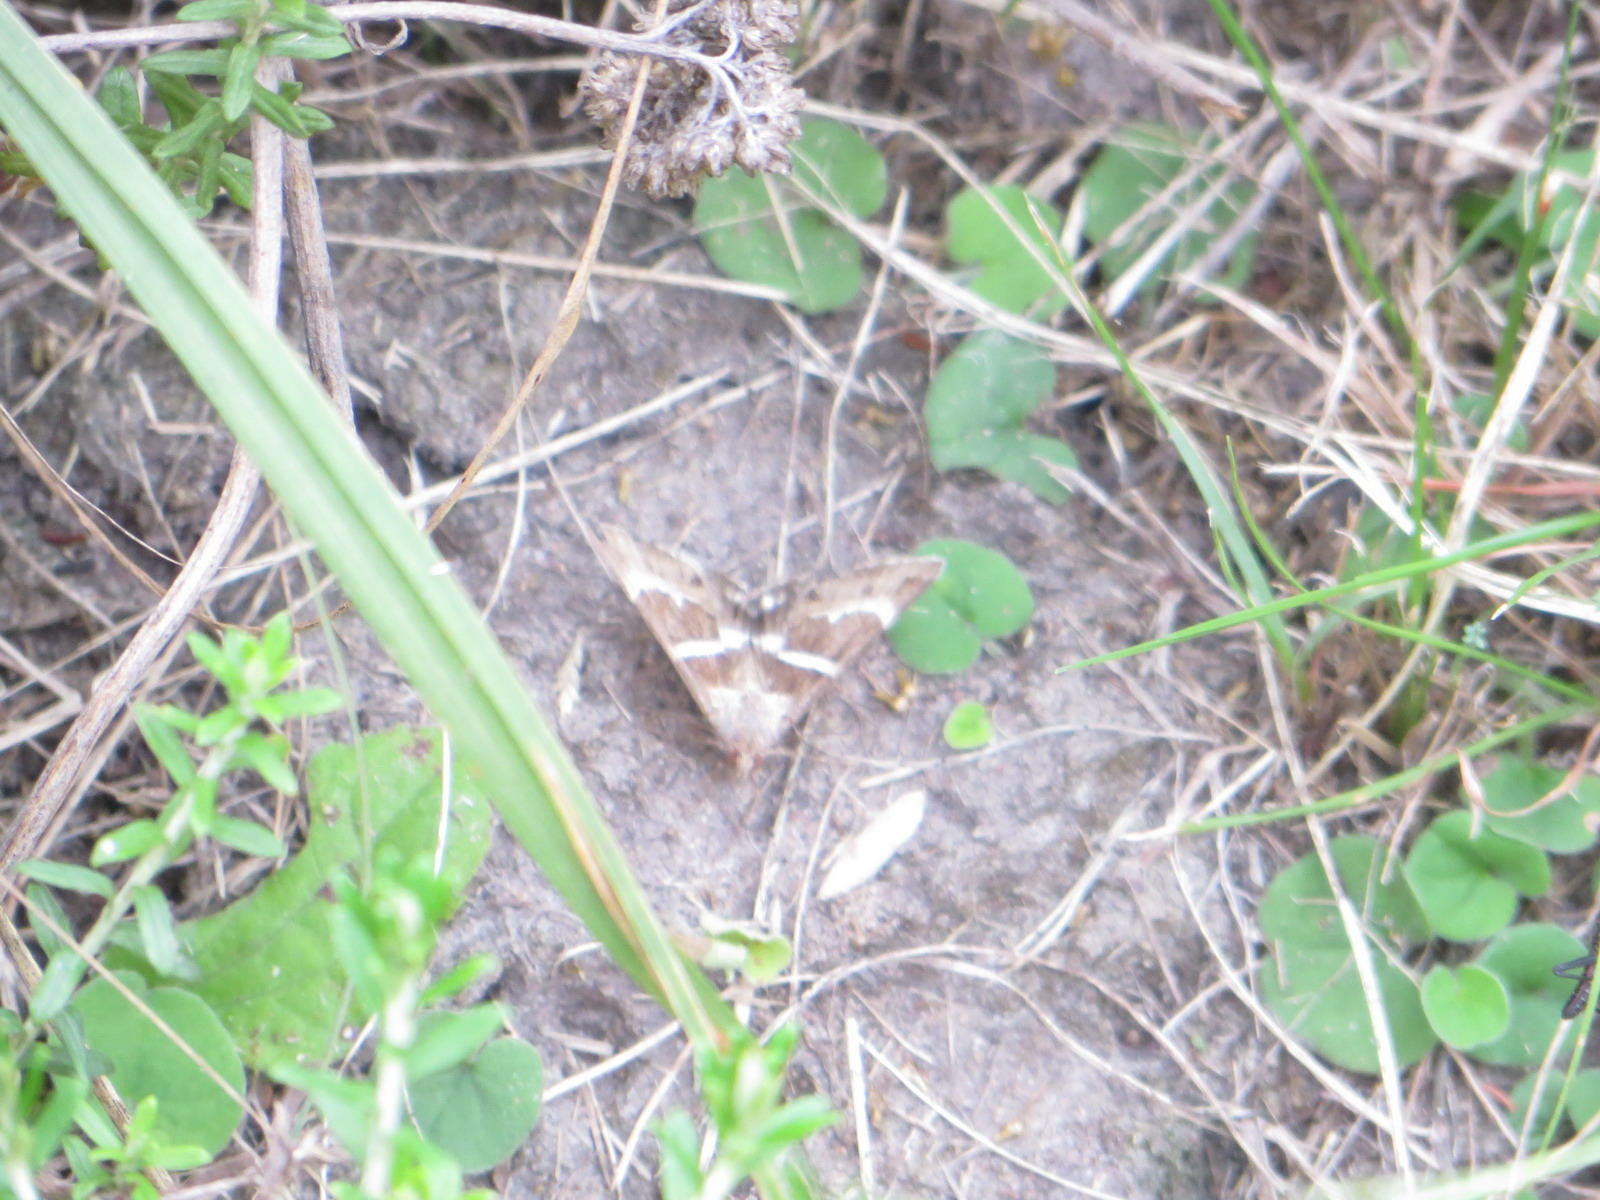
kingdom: Animalia
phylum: Arthropoda
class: Insecta
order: Lepidoptera
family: Erebidae
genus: Grammodes
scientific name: Grammodes stolida
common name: Geometrician
